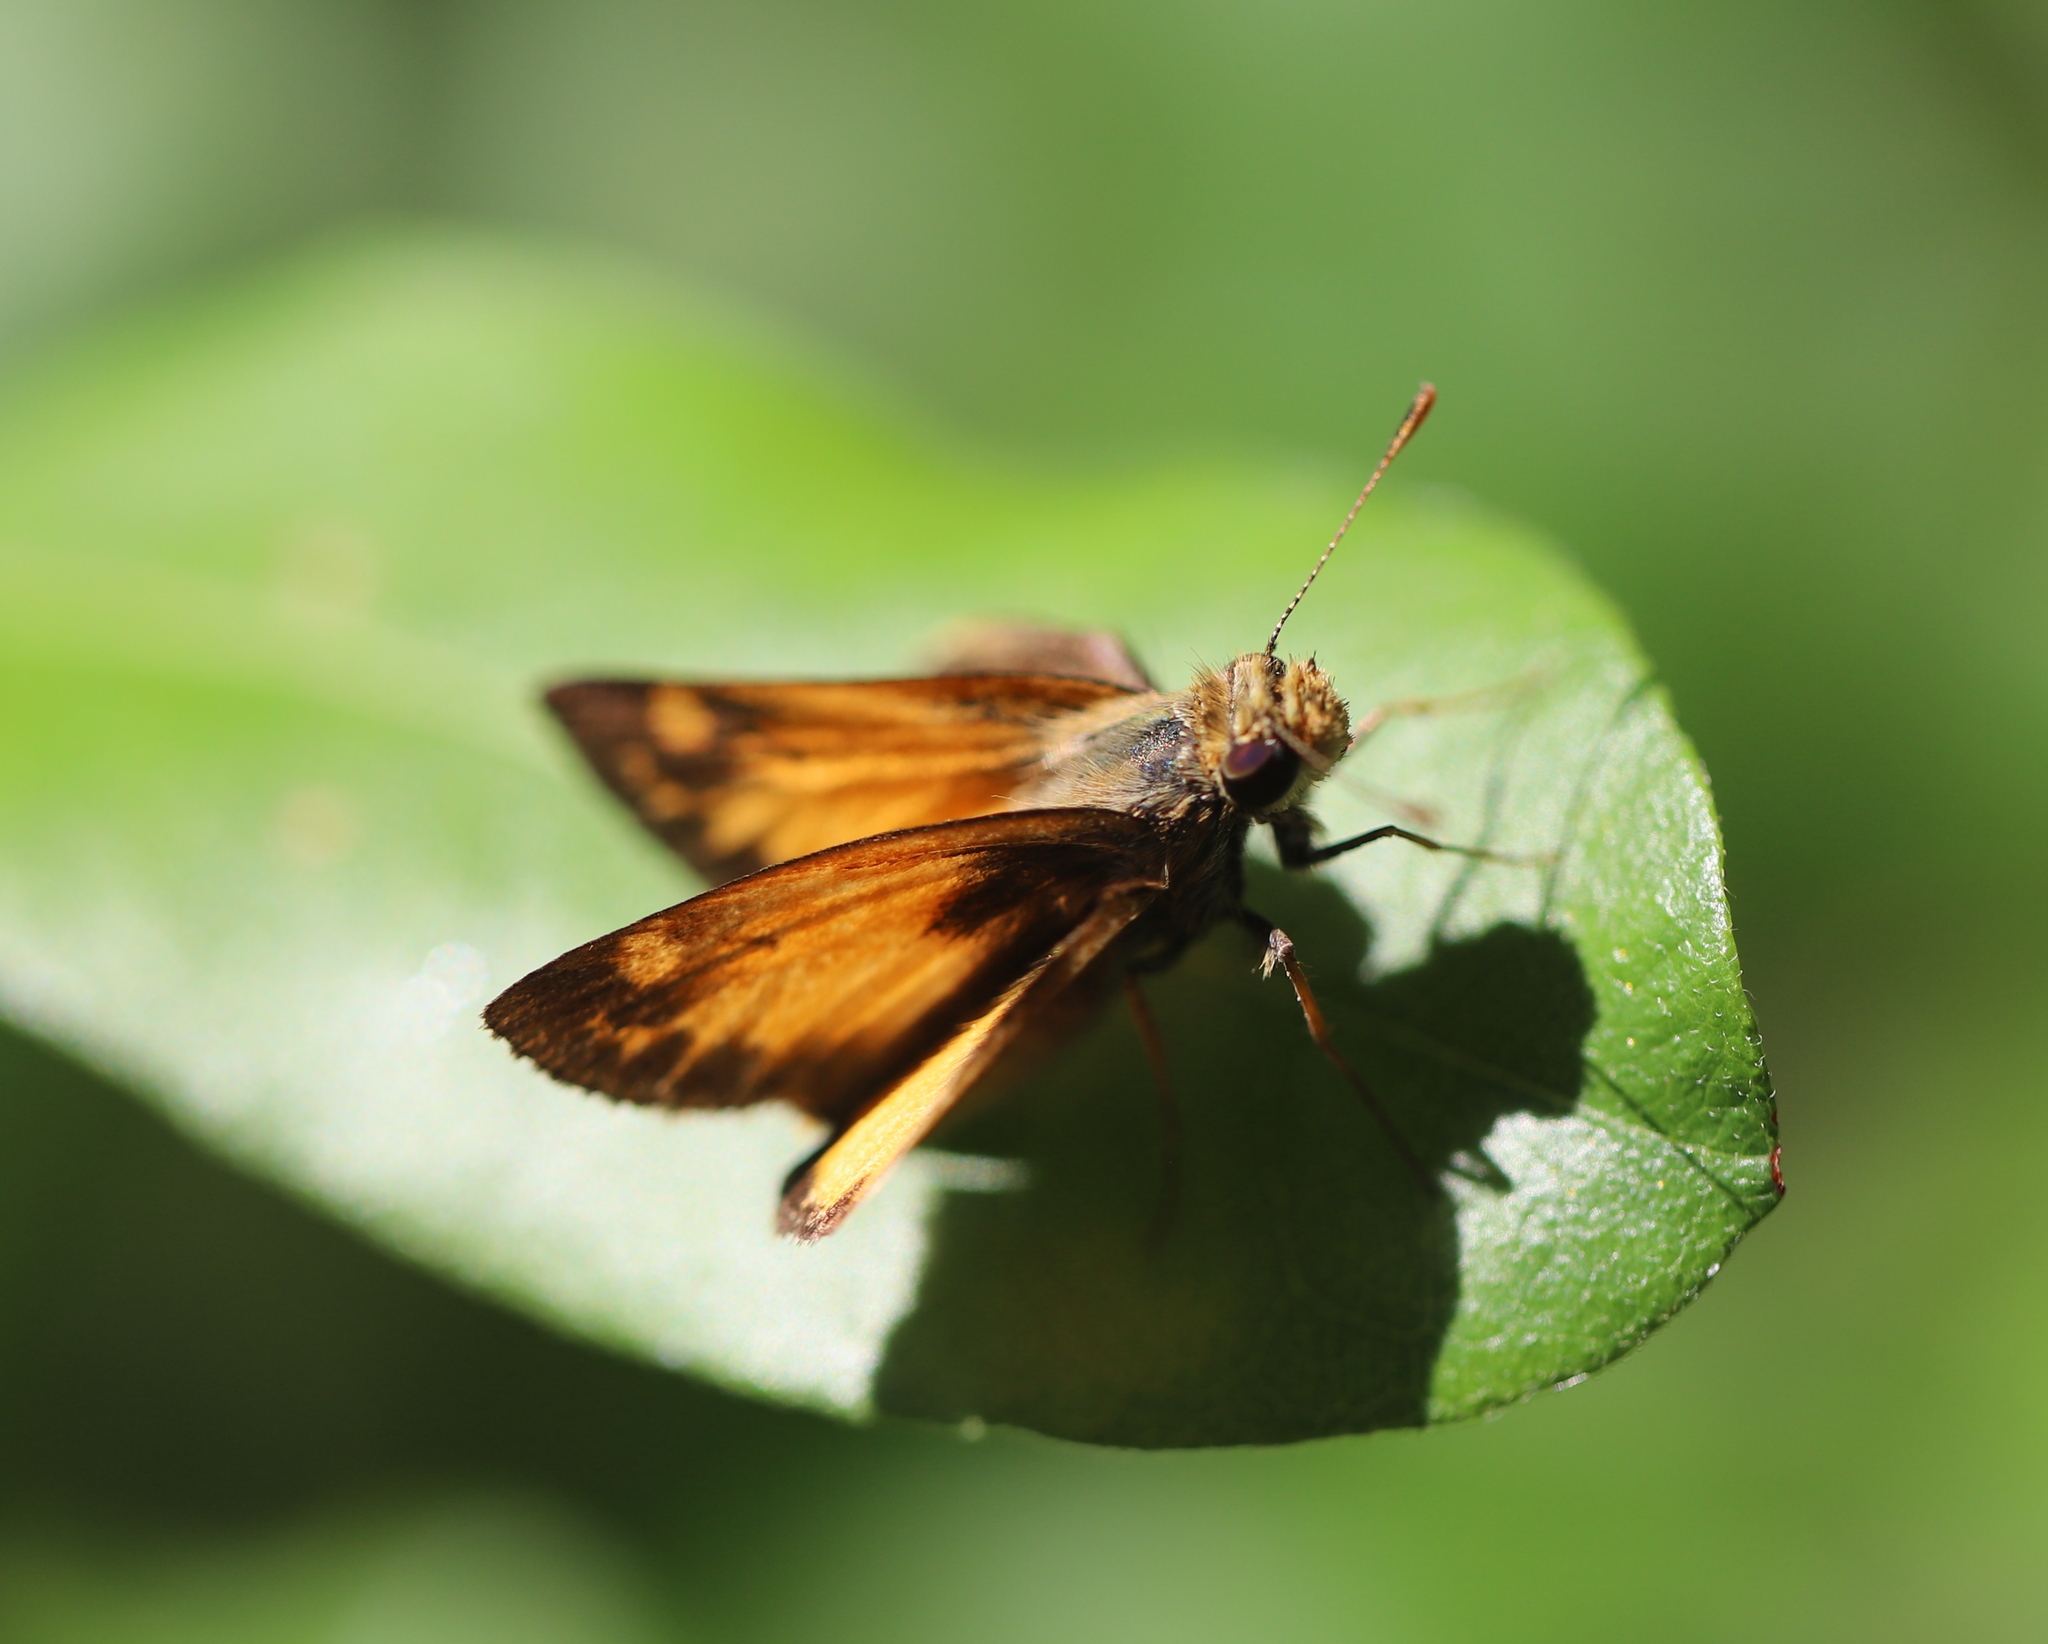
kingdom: Animalia
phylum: Arthropoda
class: Insecta
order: Lepidoptera
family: Hesperiidae
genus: Lon
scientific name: Lon zabulon
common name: Zabulon skipper
